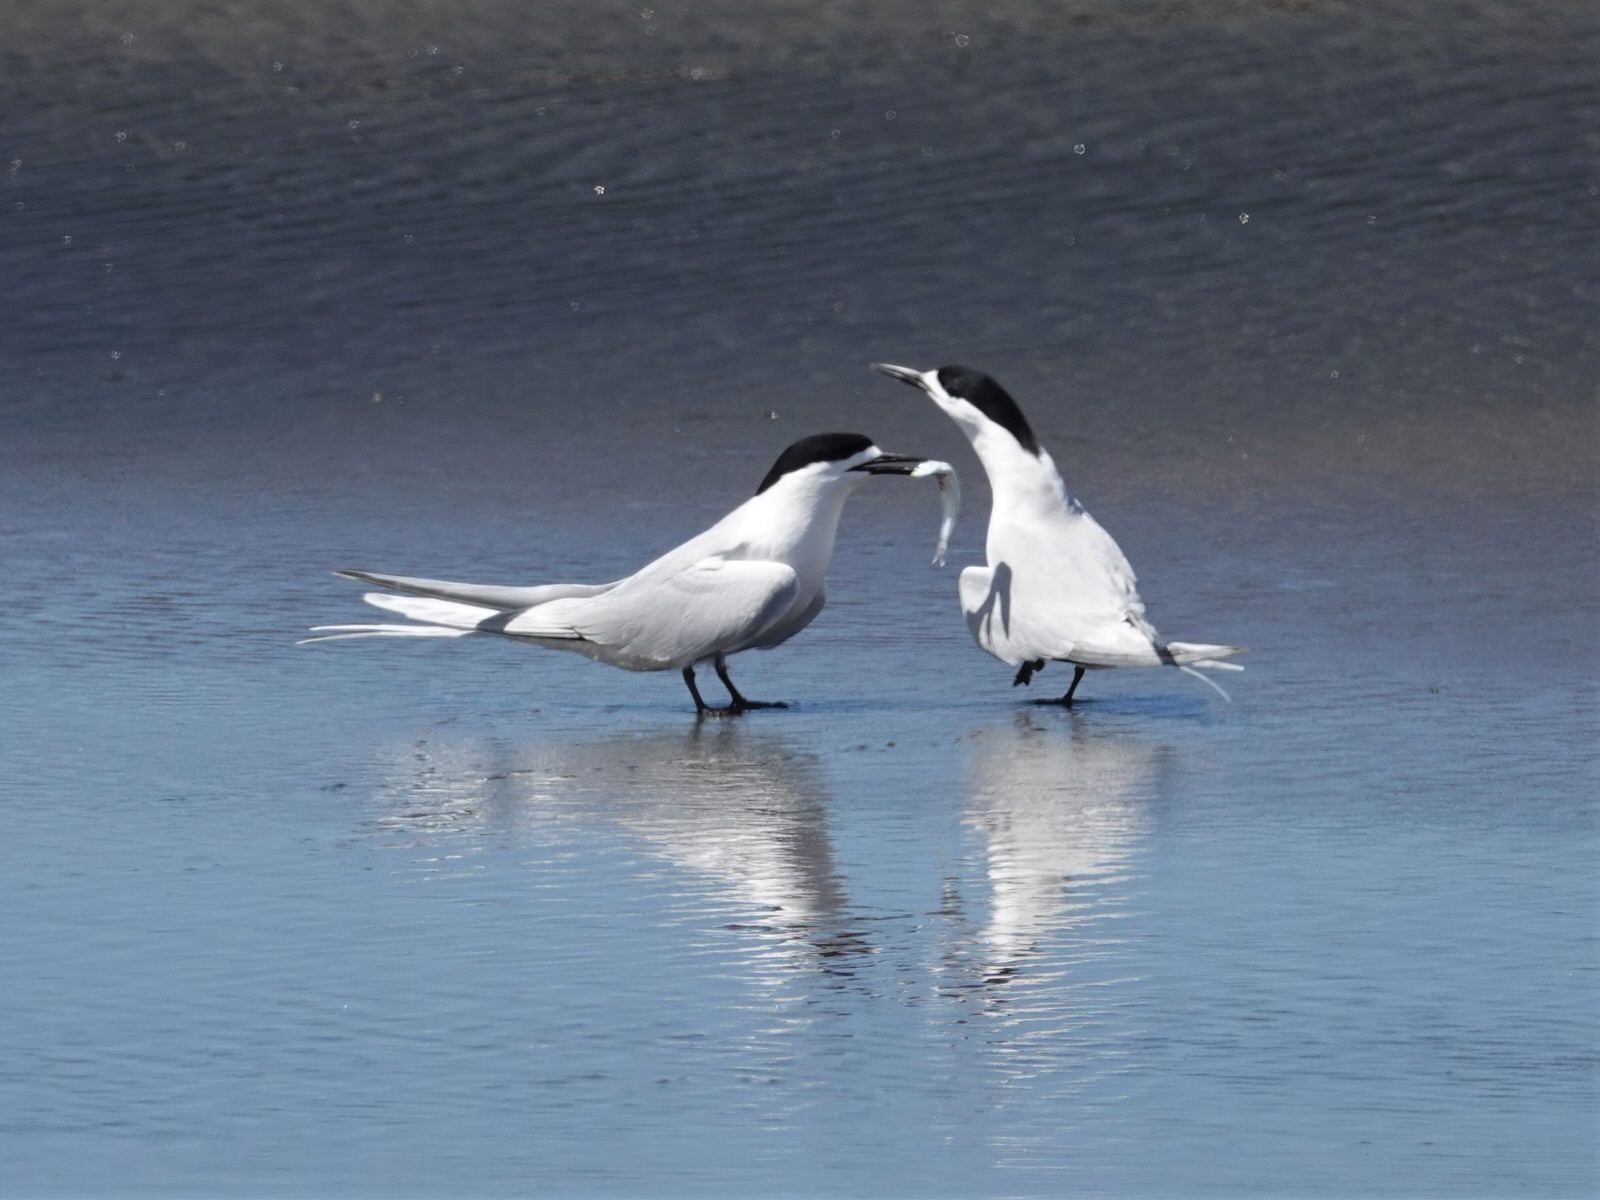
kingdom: Animalia
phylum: Chordata
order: Clupeiformes
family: Engraulidae
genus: Engraulis
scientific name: Engraulis australis
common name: Australian anchovy
